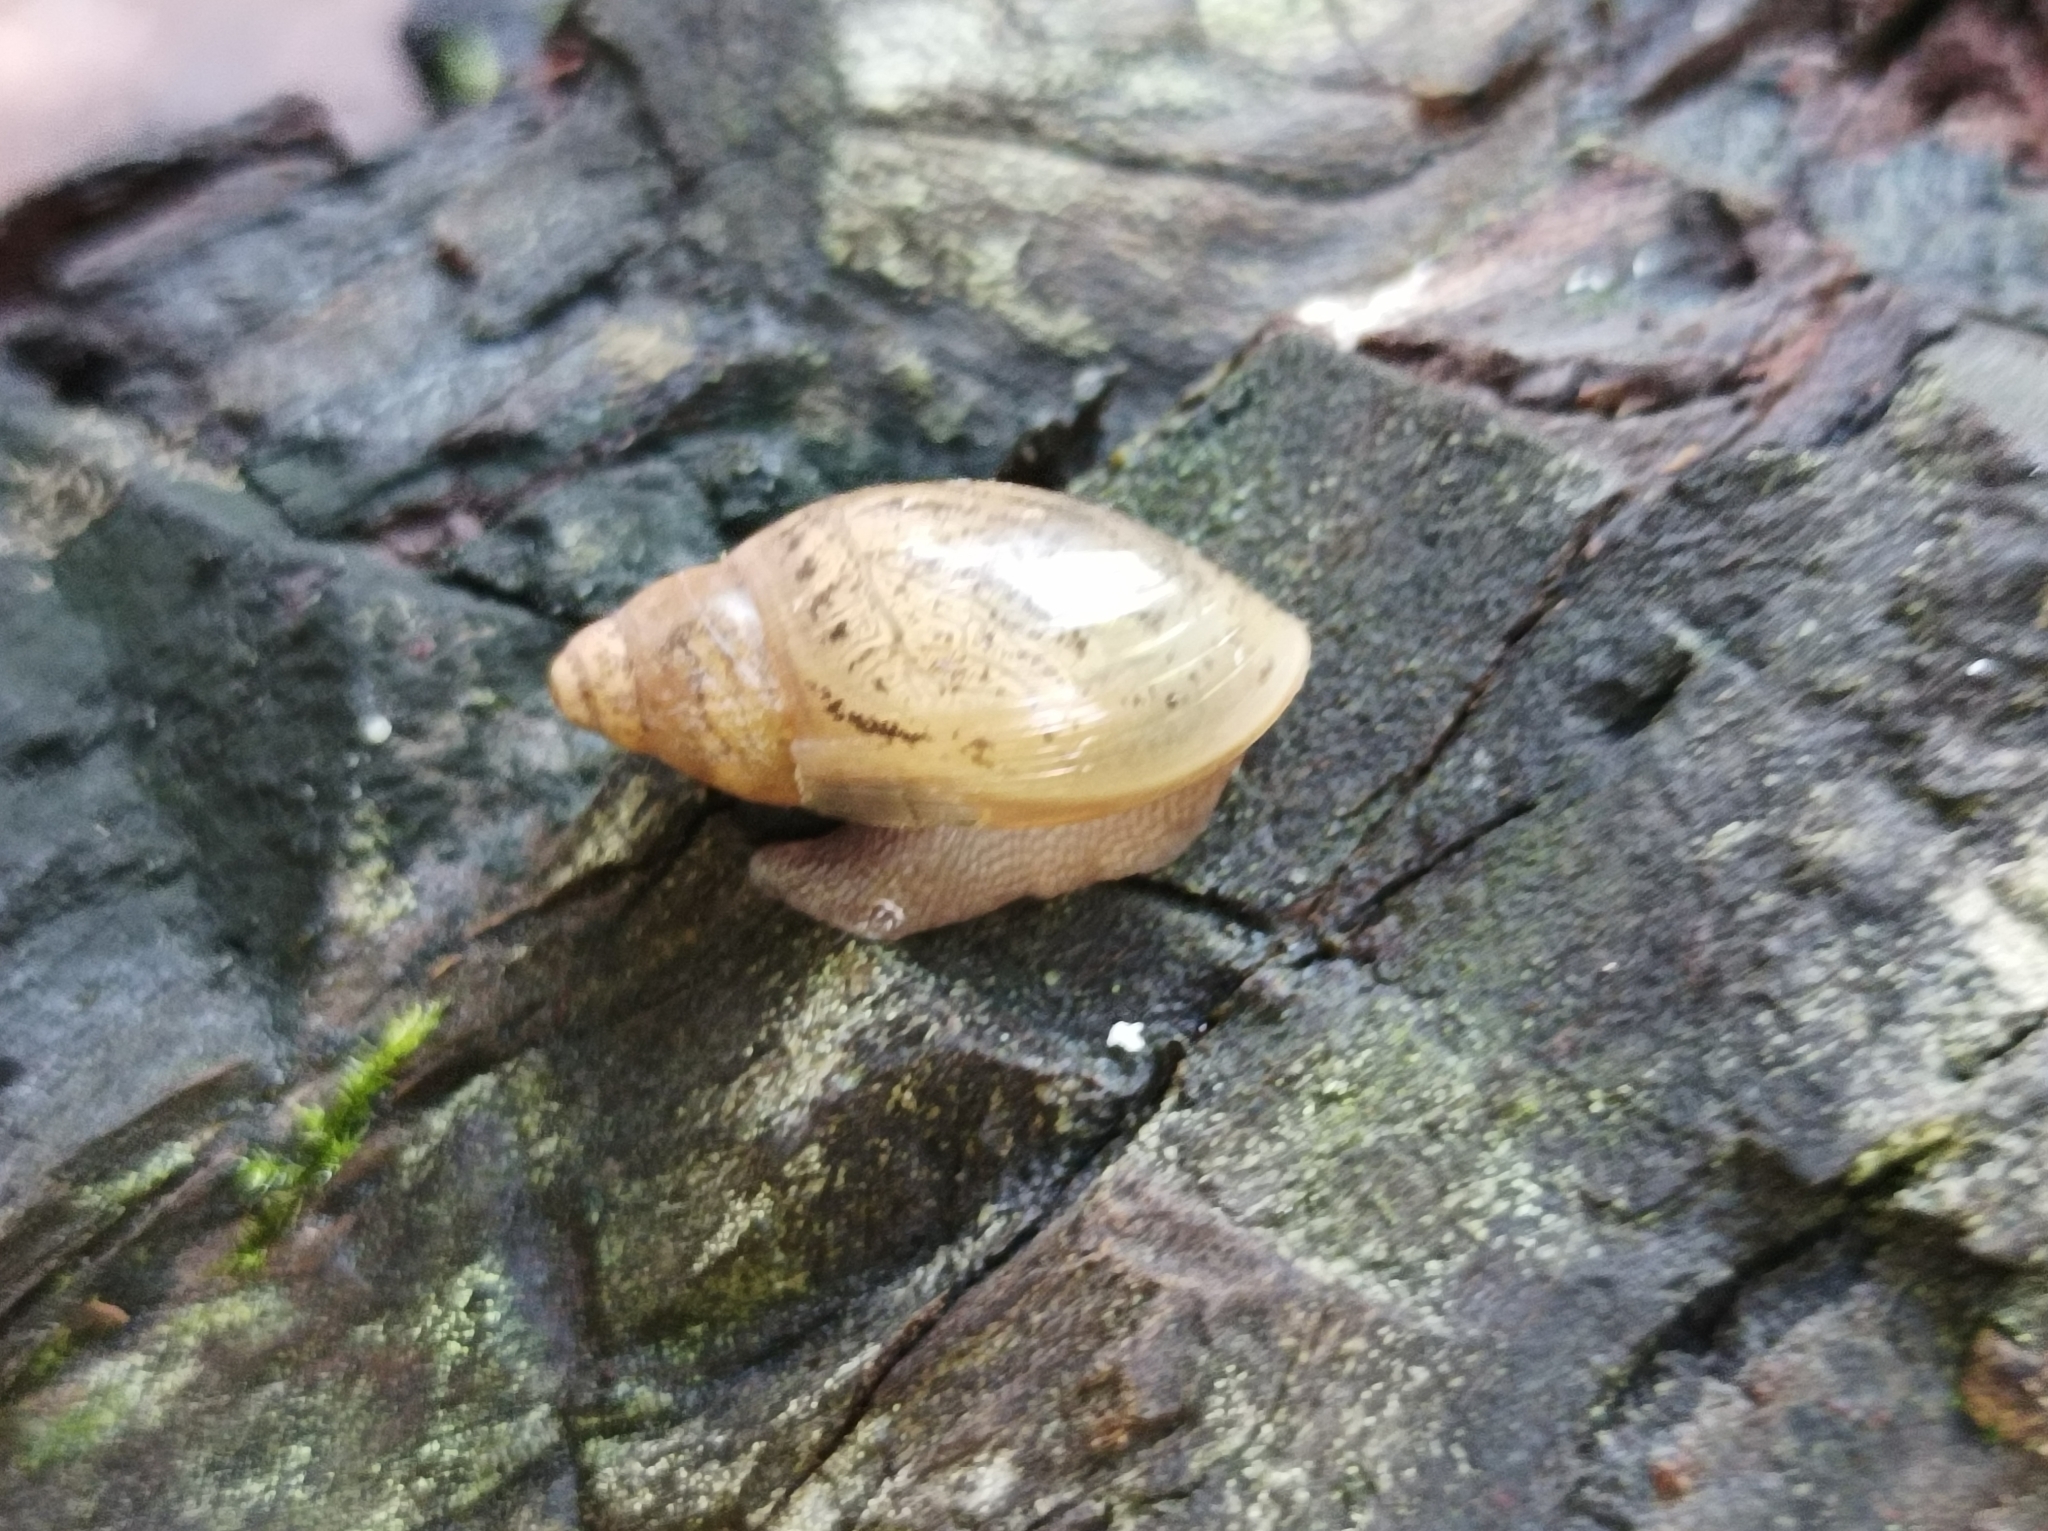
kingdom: Animalia
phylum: Mollusca
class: Gastropoda
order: Stylommatophora
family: Spiraxidae
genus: Euglandina
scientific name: Euglandina rosea
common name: Rosy wolfsnail
